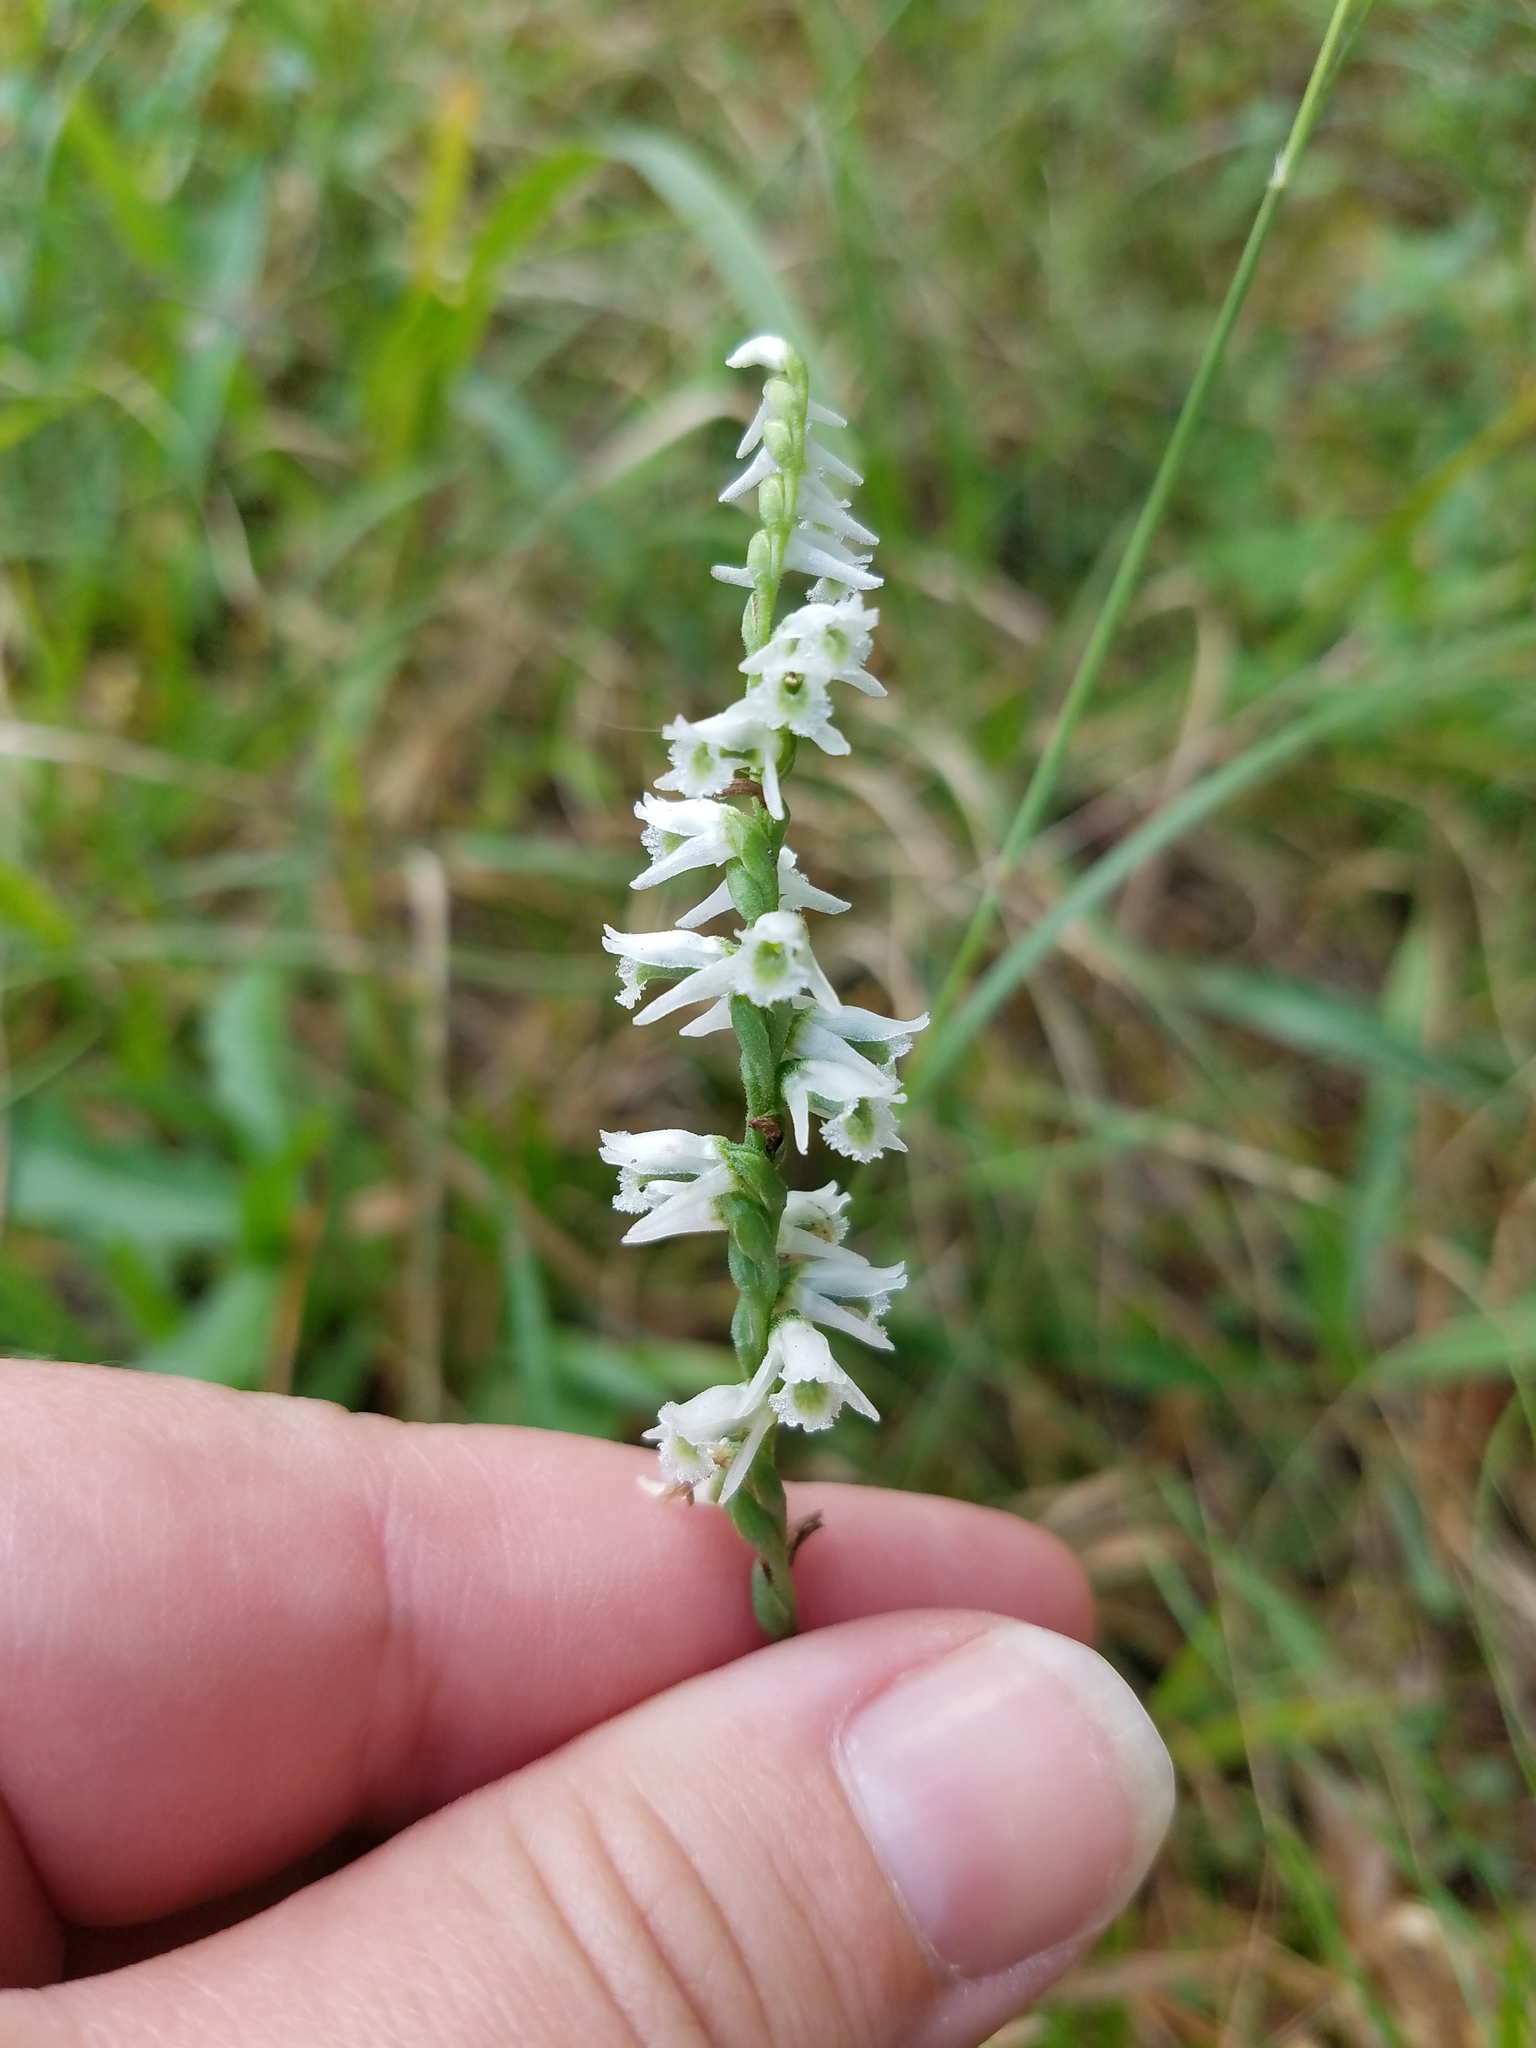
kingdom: Plantae
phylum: Tracheophyta
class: Liliopsida
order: Asparagales
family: Orchidaceae
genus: Spiranthes
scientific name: Spiranthes lacera
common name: Northern slender ladies'-tresses
